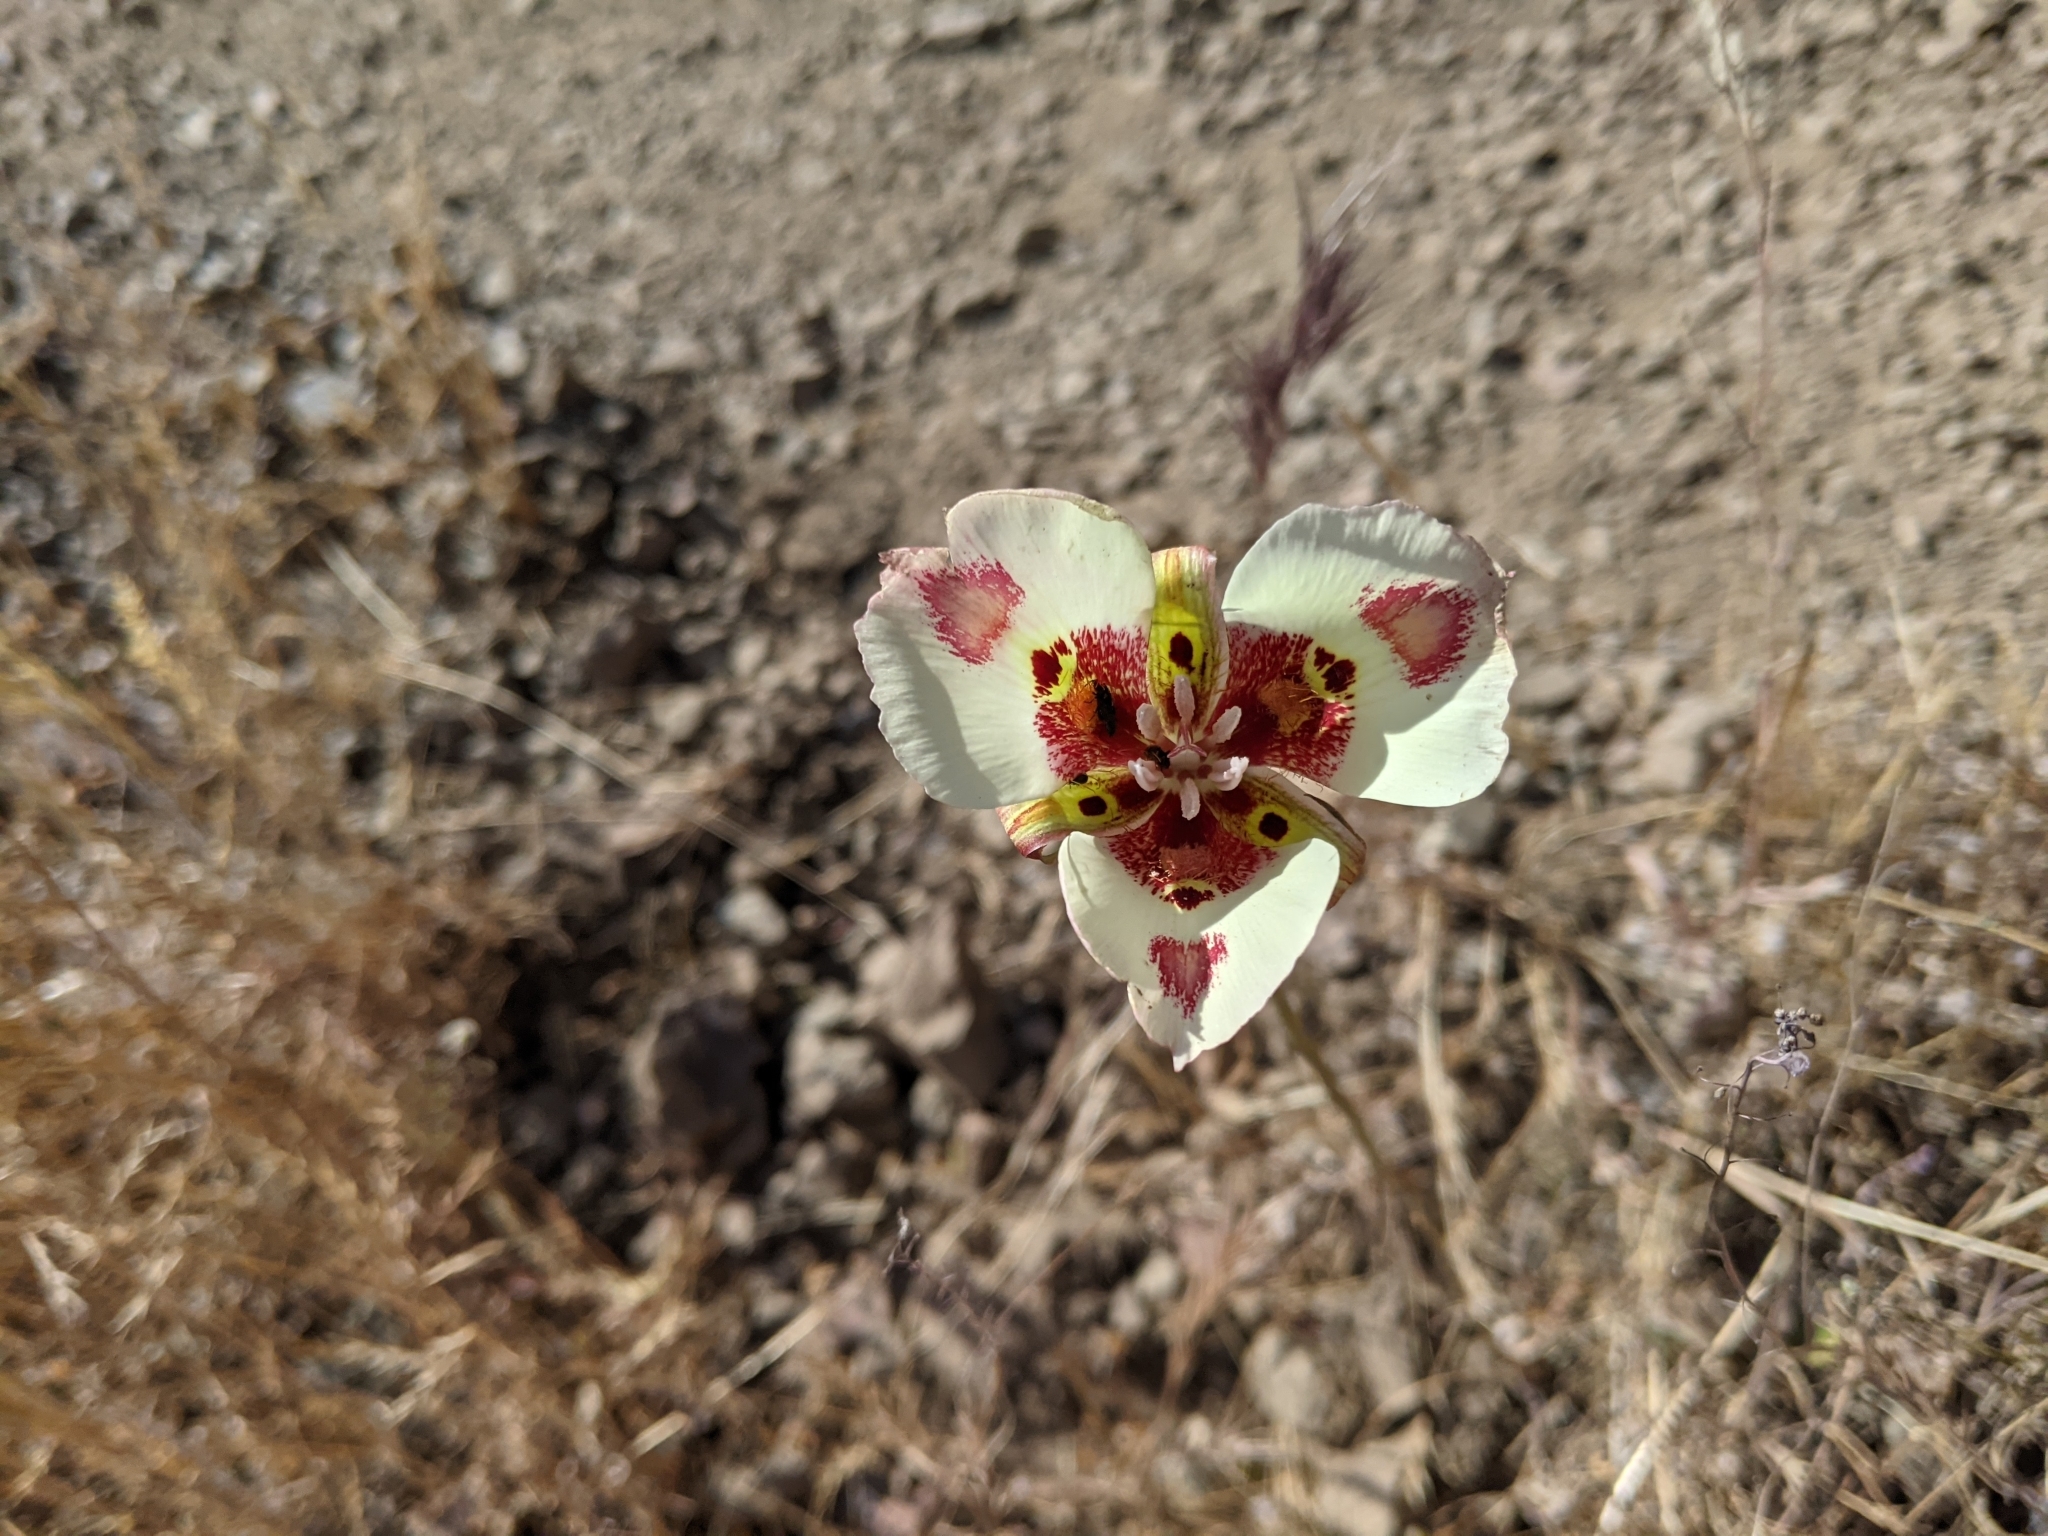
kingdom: Plantae
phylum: Tracheophyta
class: Liliopsida
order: Liliales
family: Liliaceae
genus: Calochortus
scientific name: Calochortus venustus
